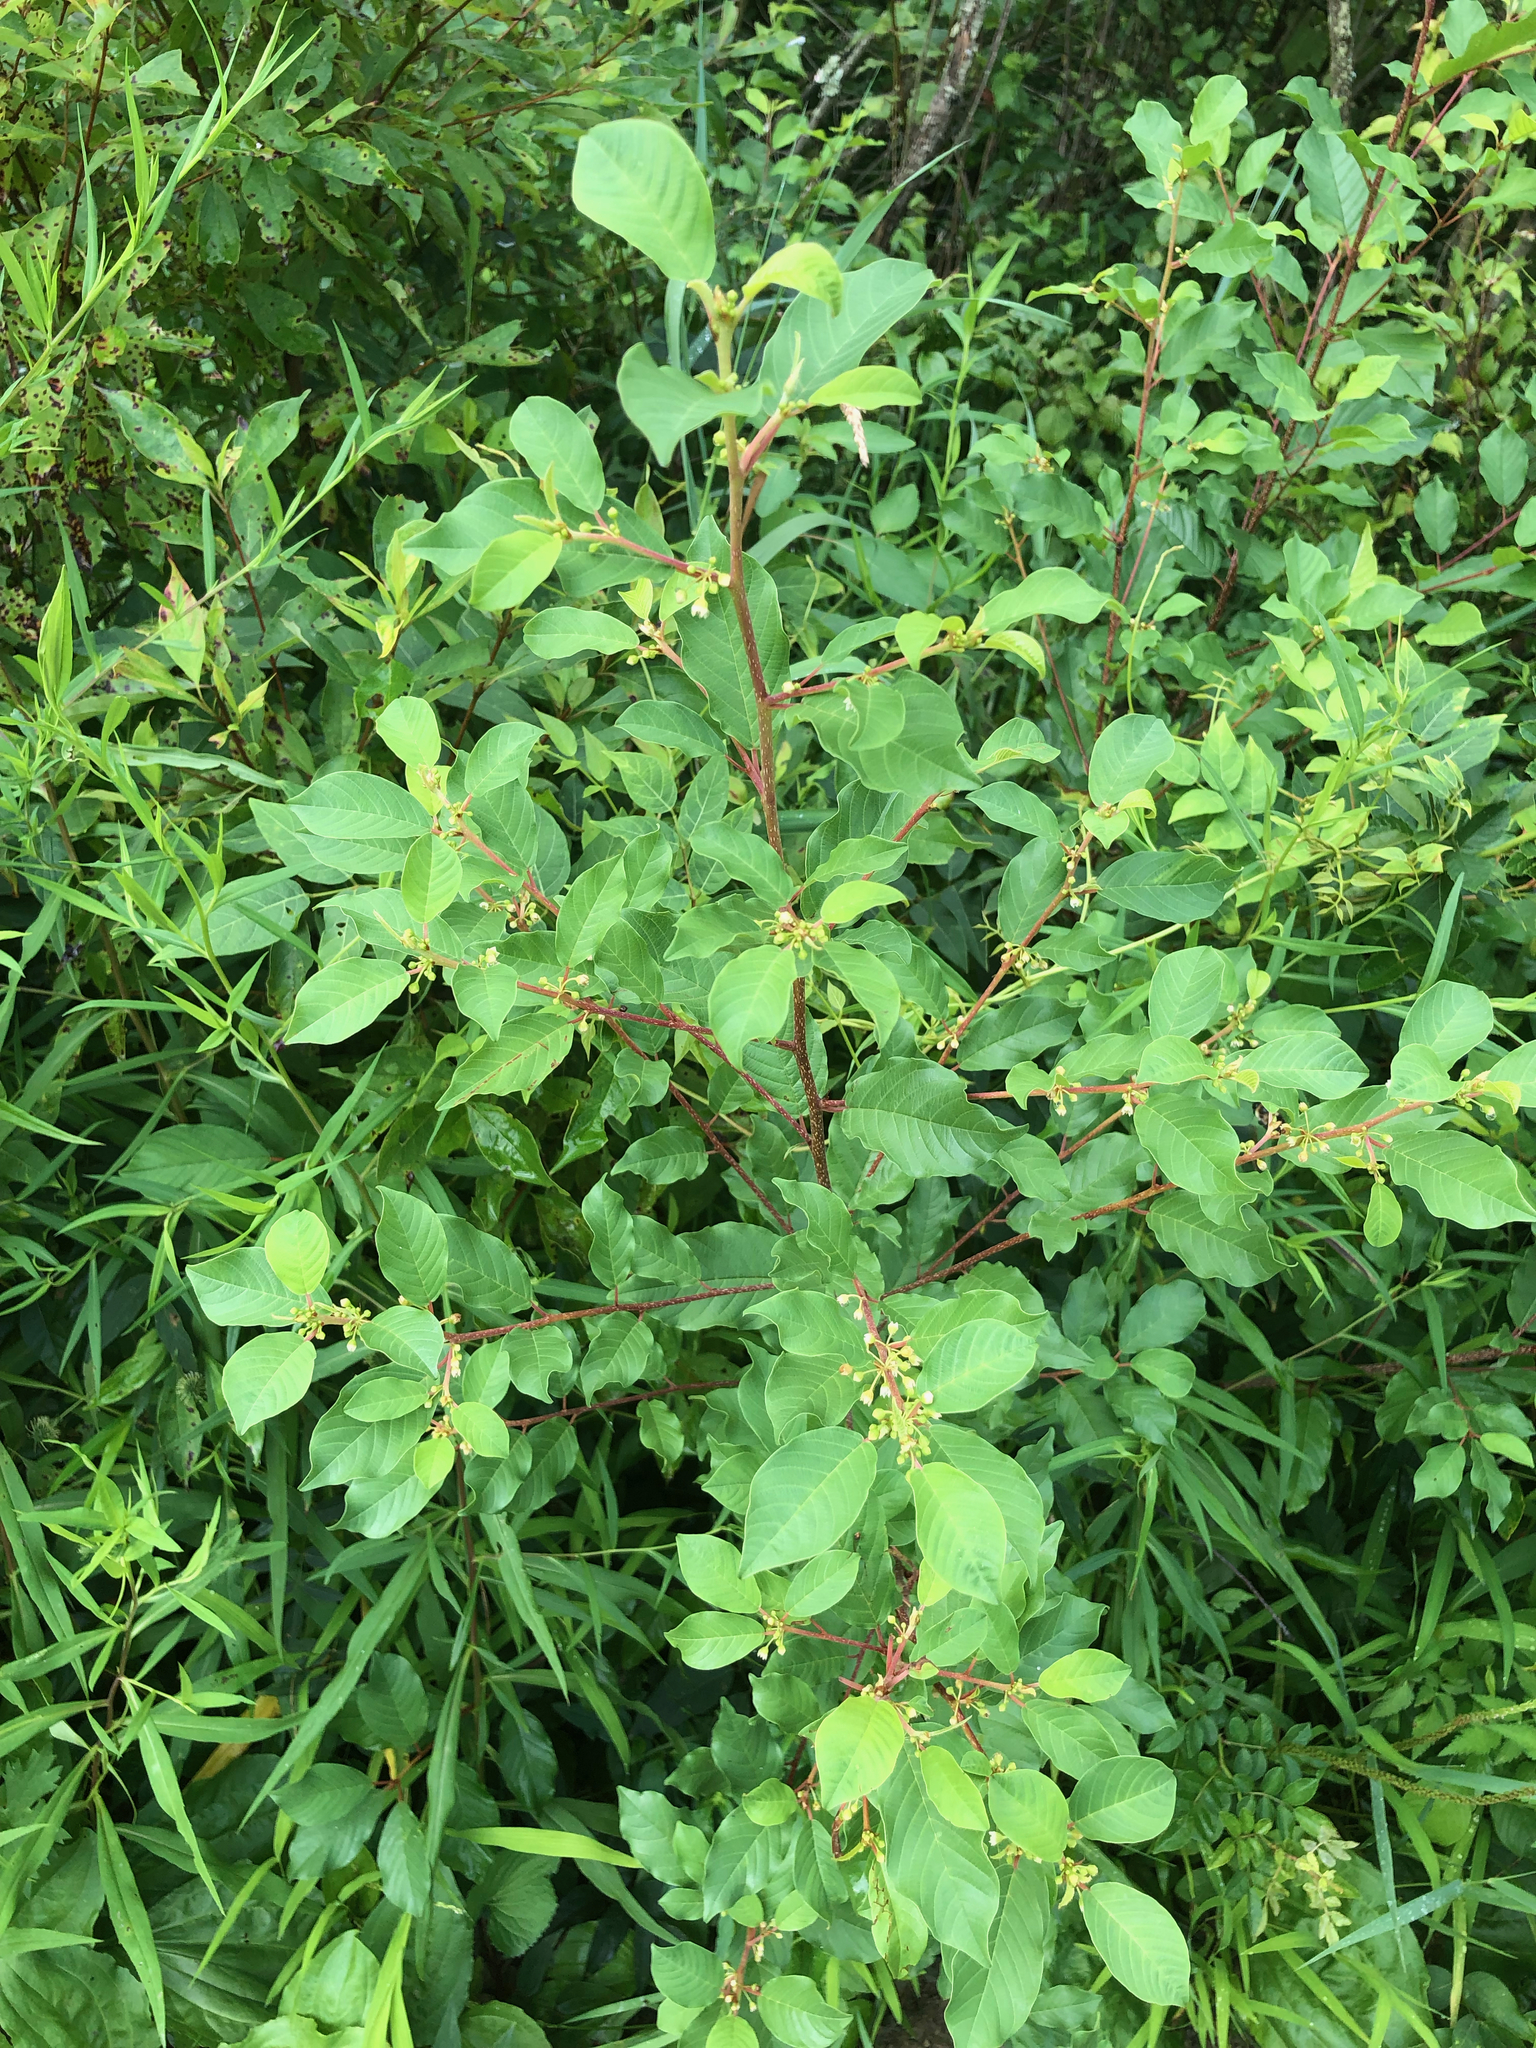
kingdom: Plantae
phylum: Tracheophyta
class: Magnoliopsida
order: Rosales
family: Rhamnaceae
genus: Frangula
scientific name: Frangula alnus
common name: Alder buckthorn
